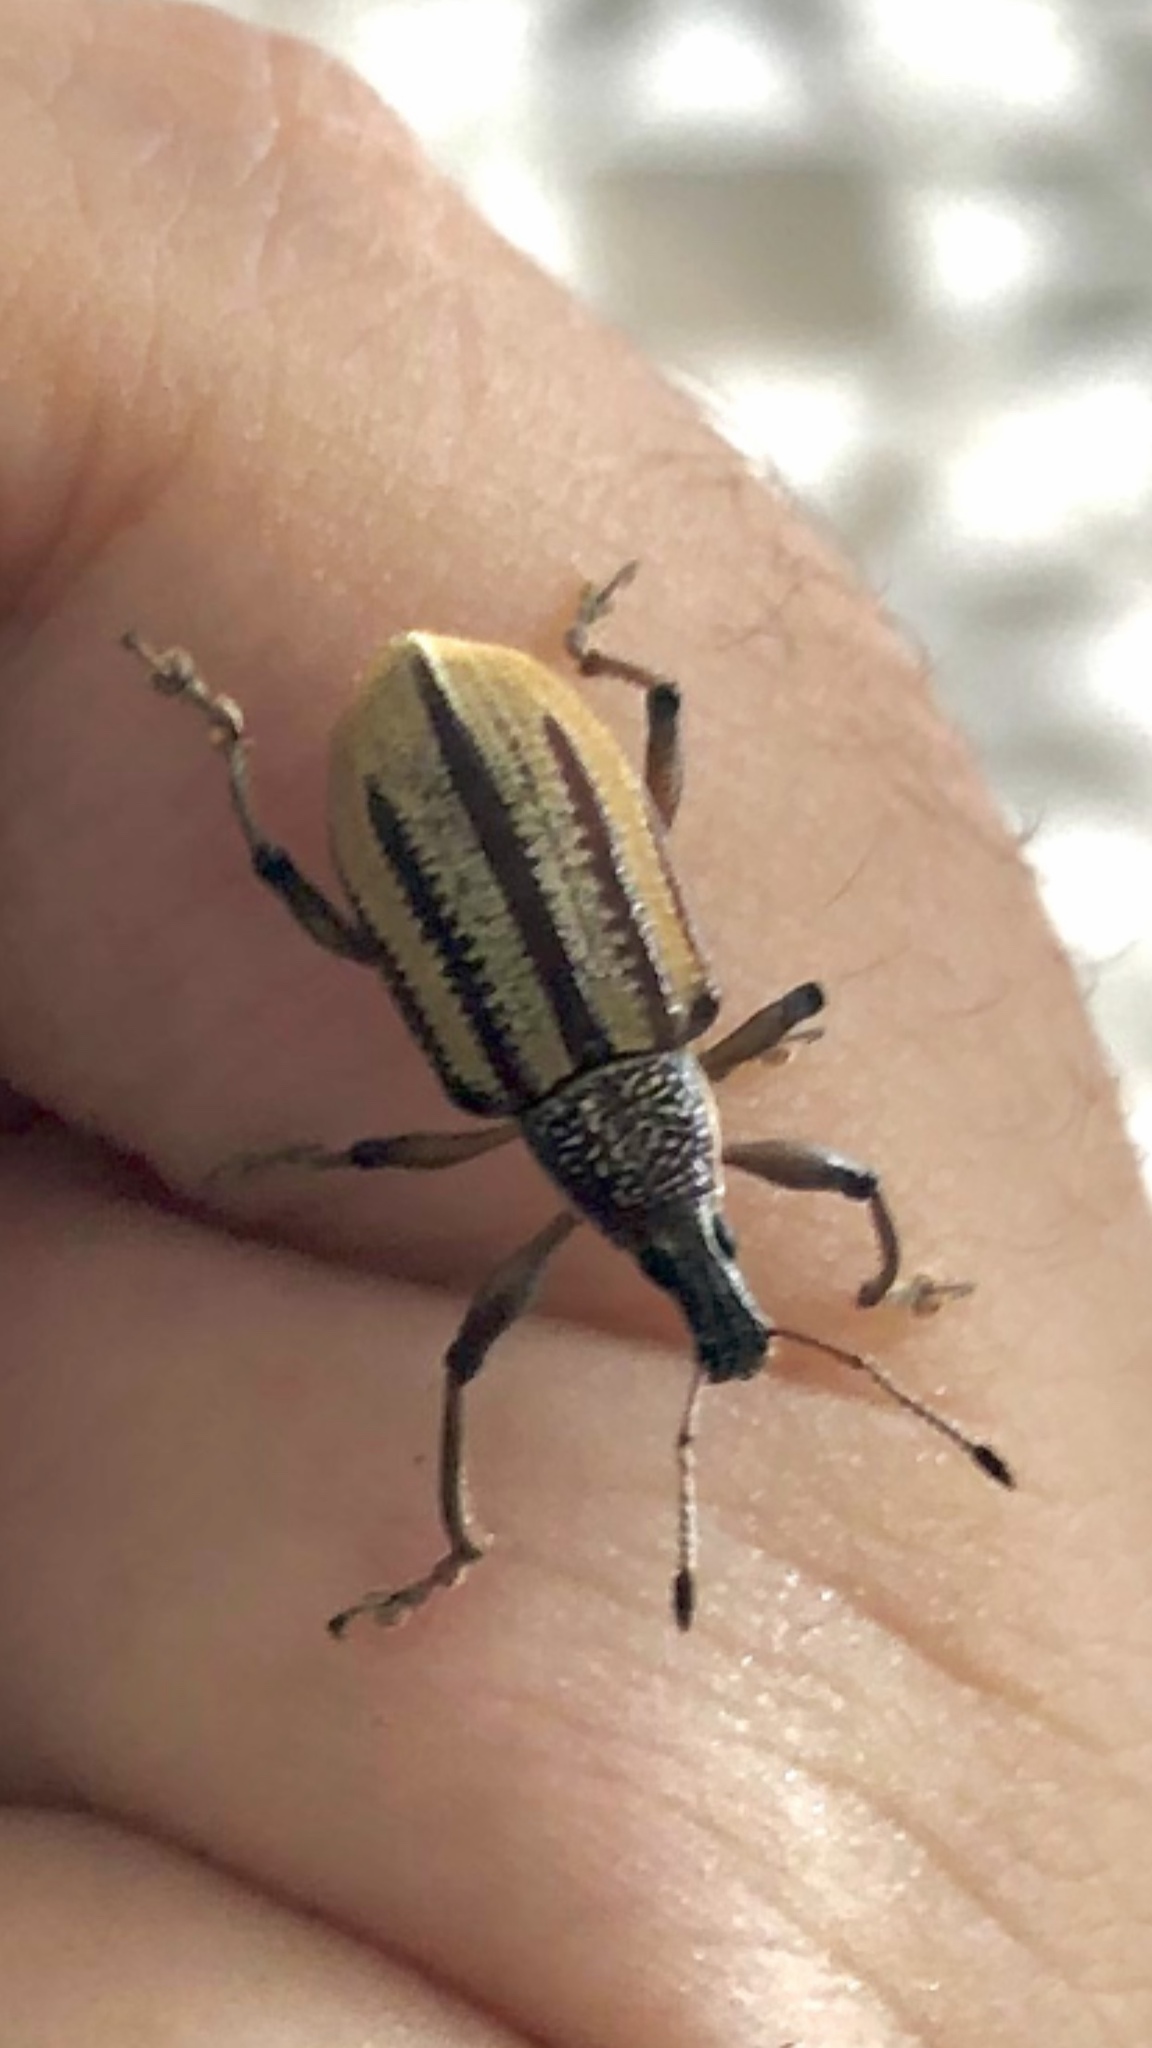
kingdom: Animalia
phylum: Arthropoda
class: Insecta
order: Coleoptera
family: Curculionidae
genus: Diaprepes
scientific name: Diaprepes abbreviatus
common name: Root weevil
